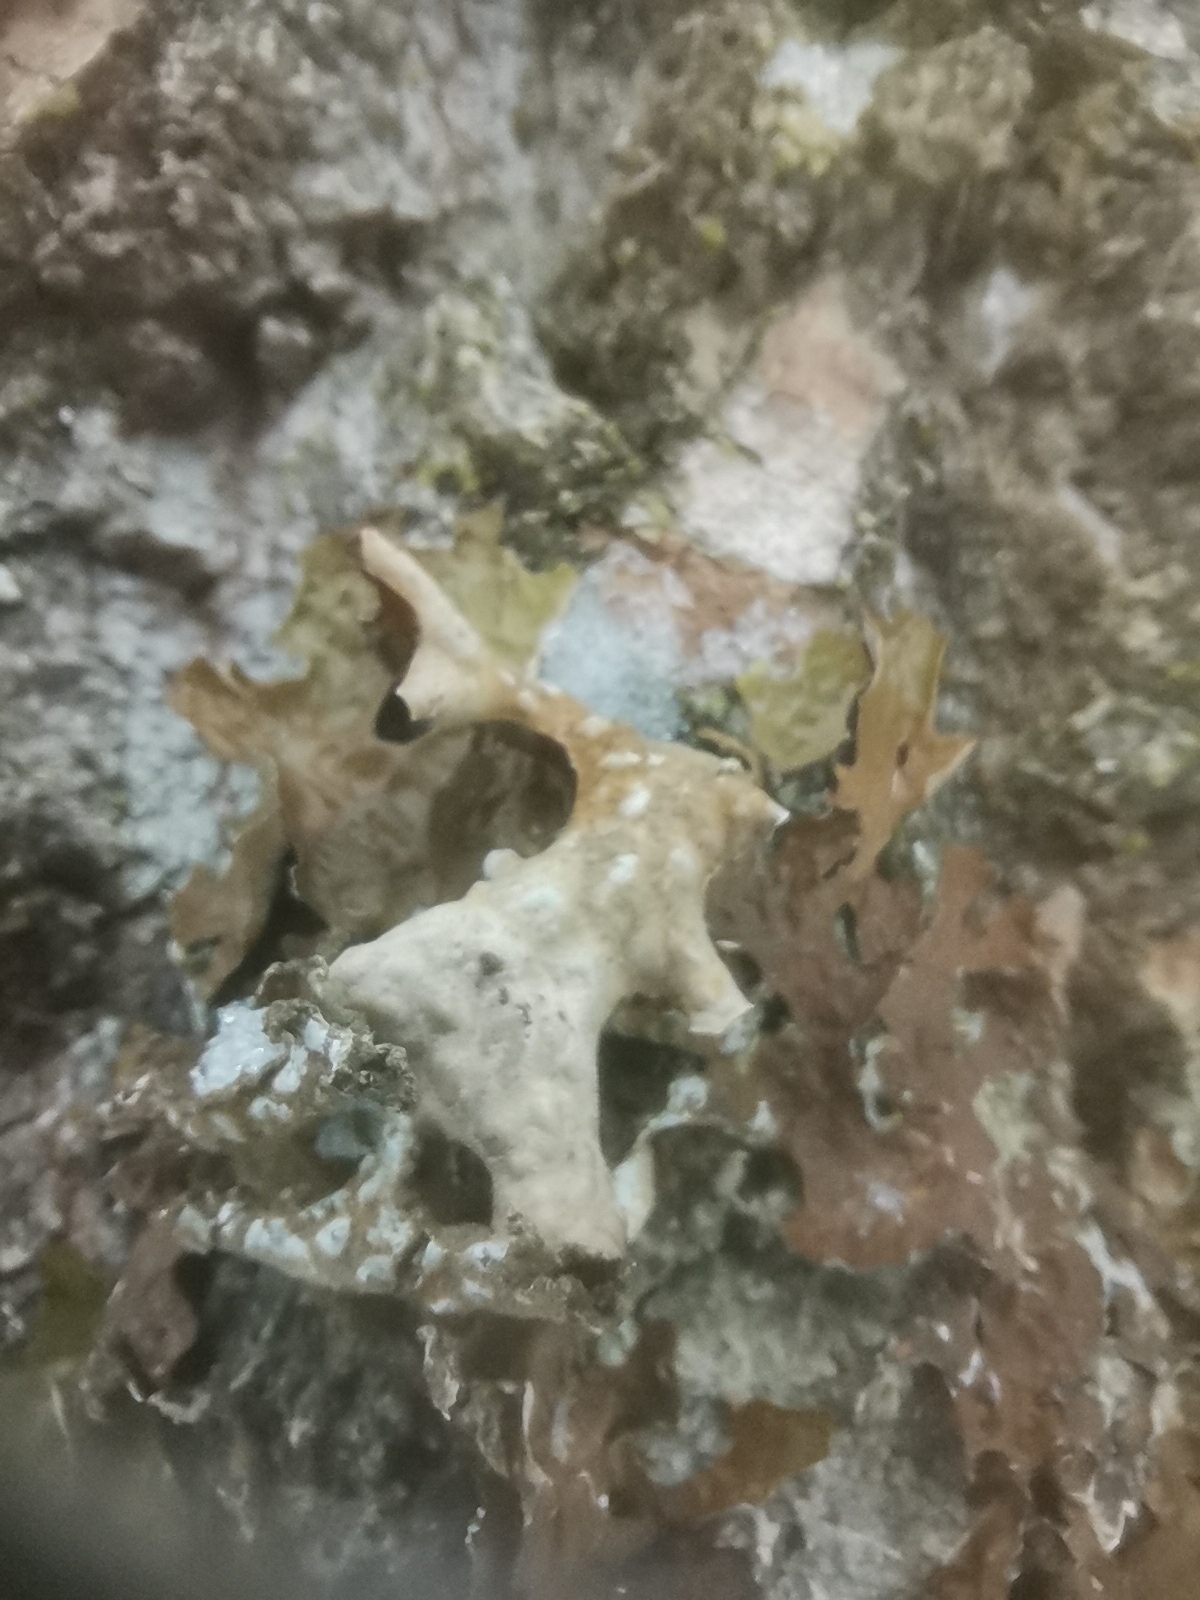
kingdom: Fungi
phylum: Ascomycota
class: Lecanoromycetes
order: Peltigerales
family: Lobariaceae
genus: Lobaria
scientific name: Lobaria pulmonaria
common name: Lungwort
